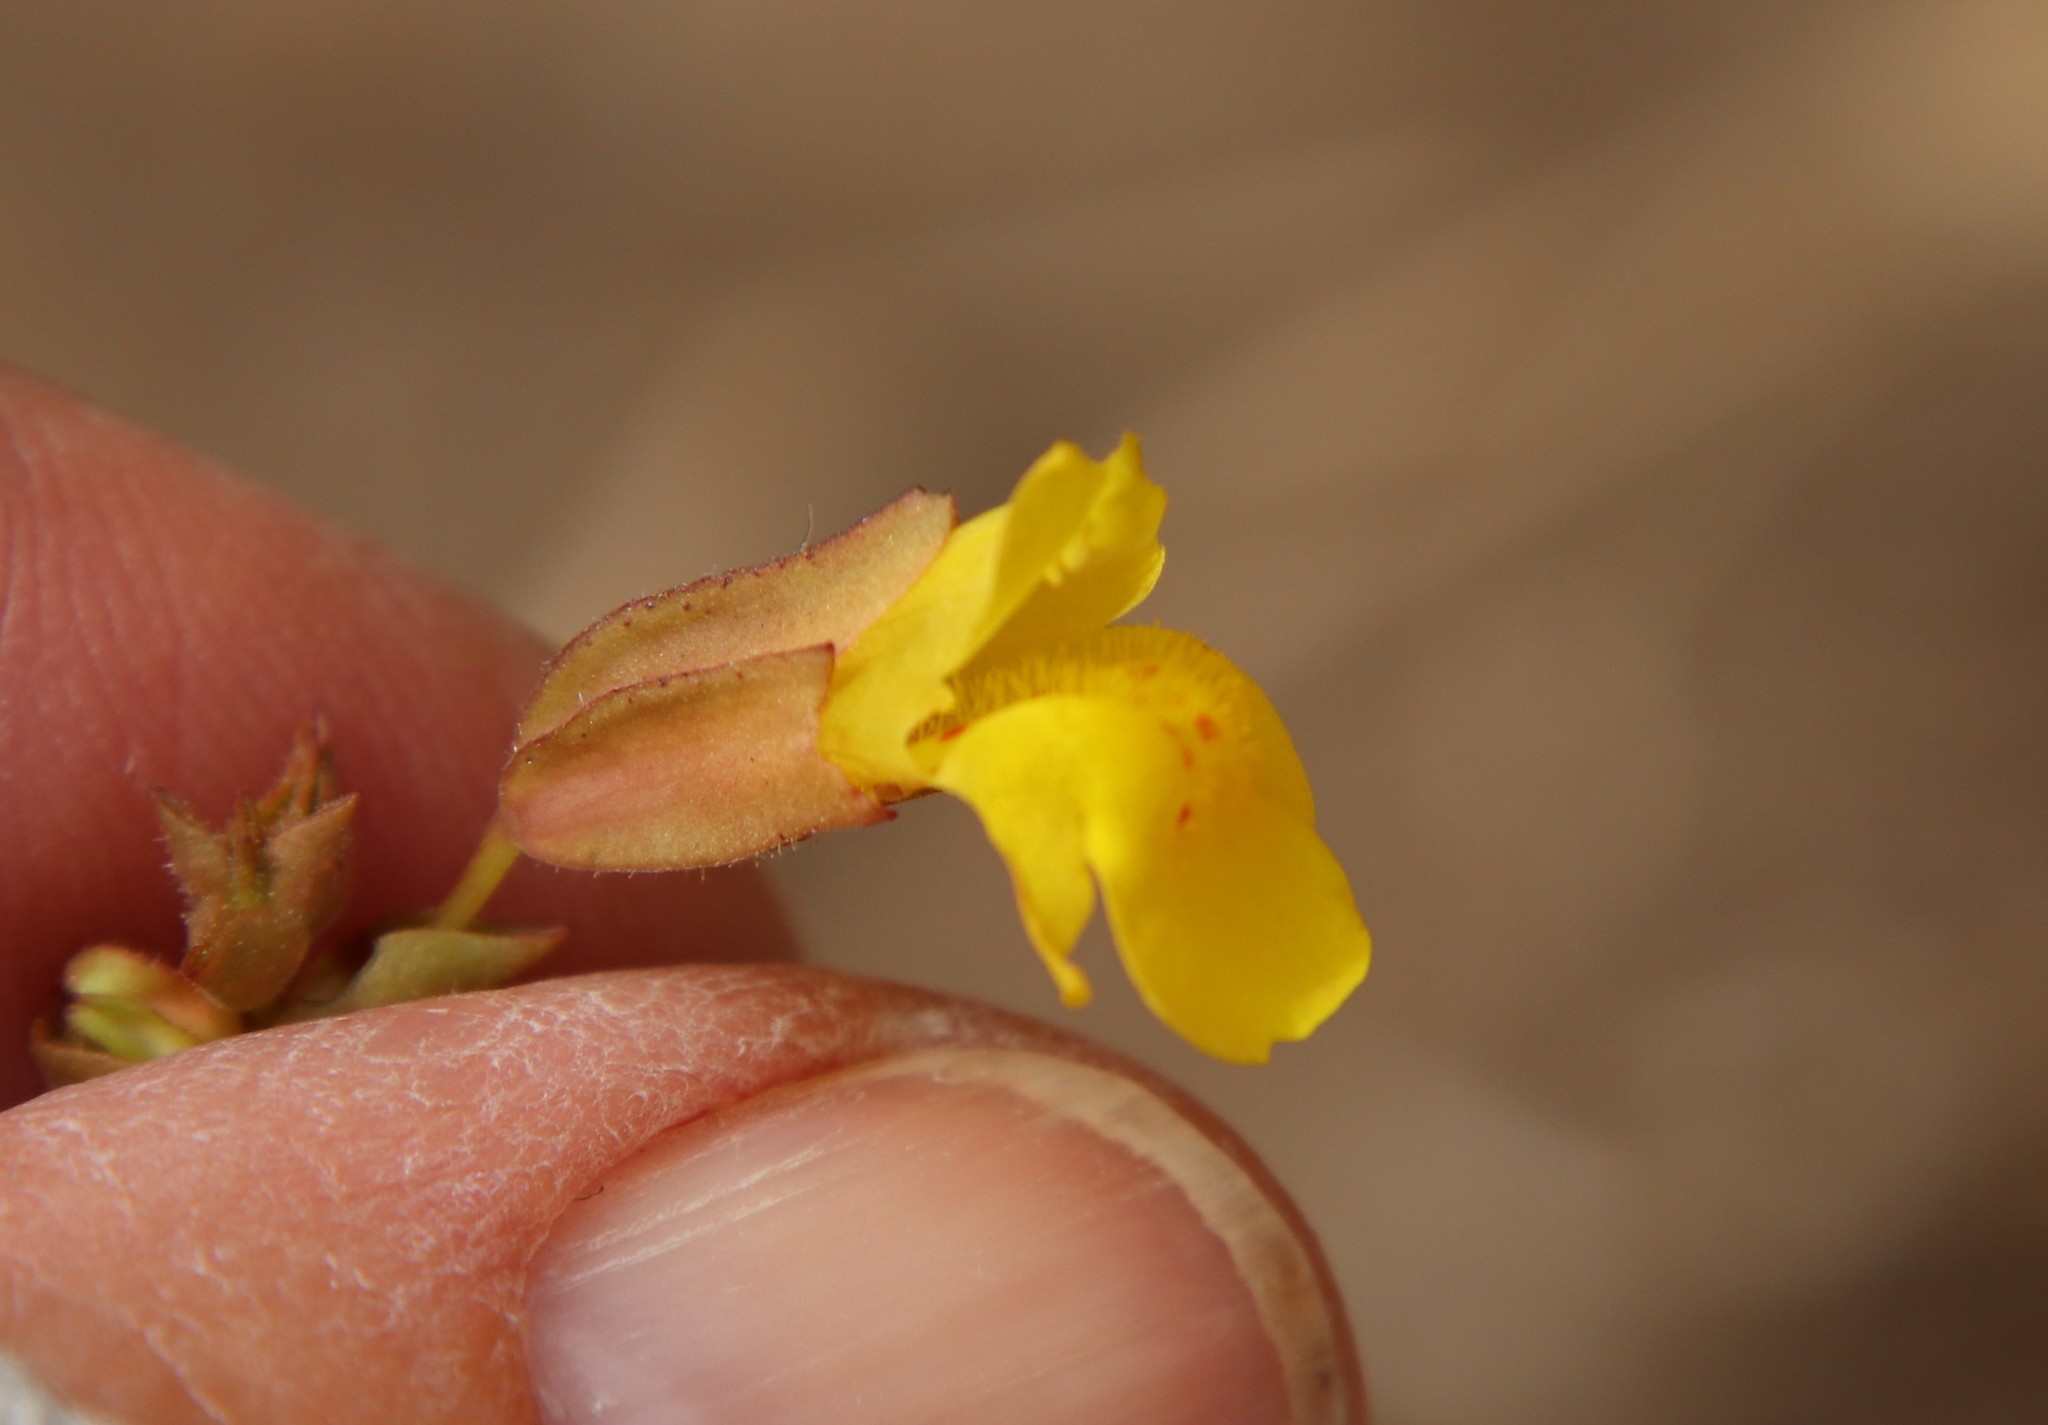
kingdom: Plantae
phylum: Tracheophyta
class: Magnoliopsida
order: Lamiales
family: Phrymaceae
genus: Erythranthe
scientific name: Erythranthe guttata
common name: Monkeyflower
